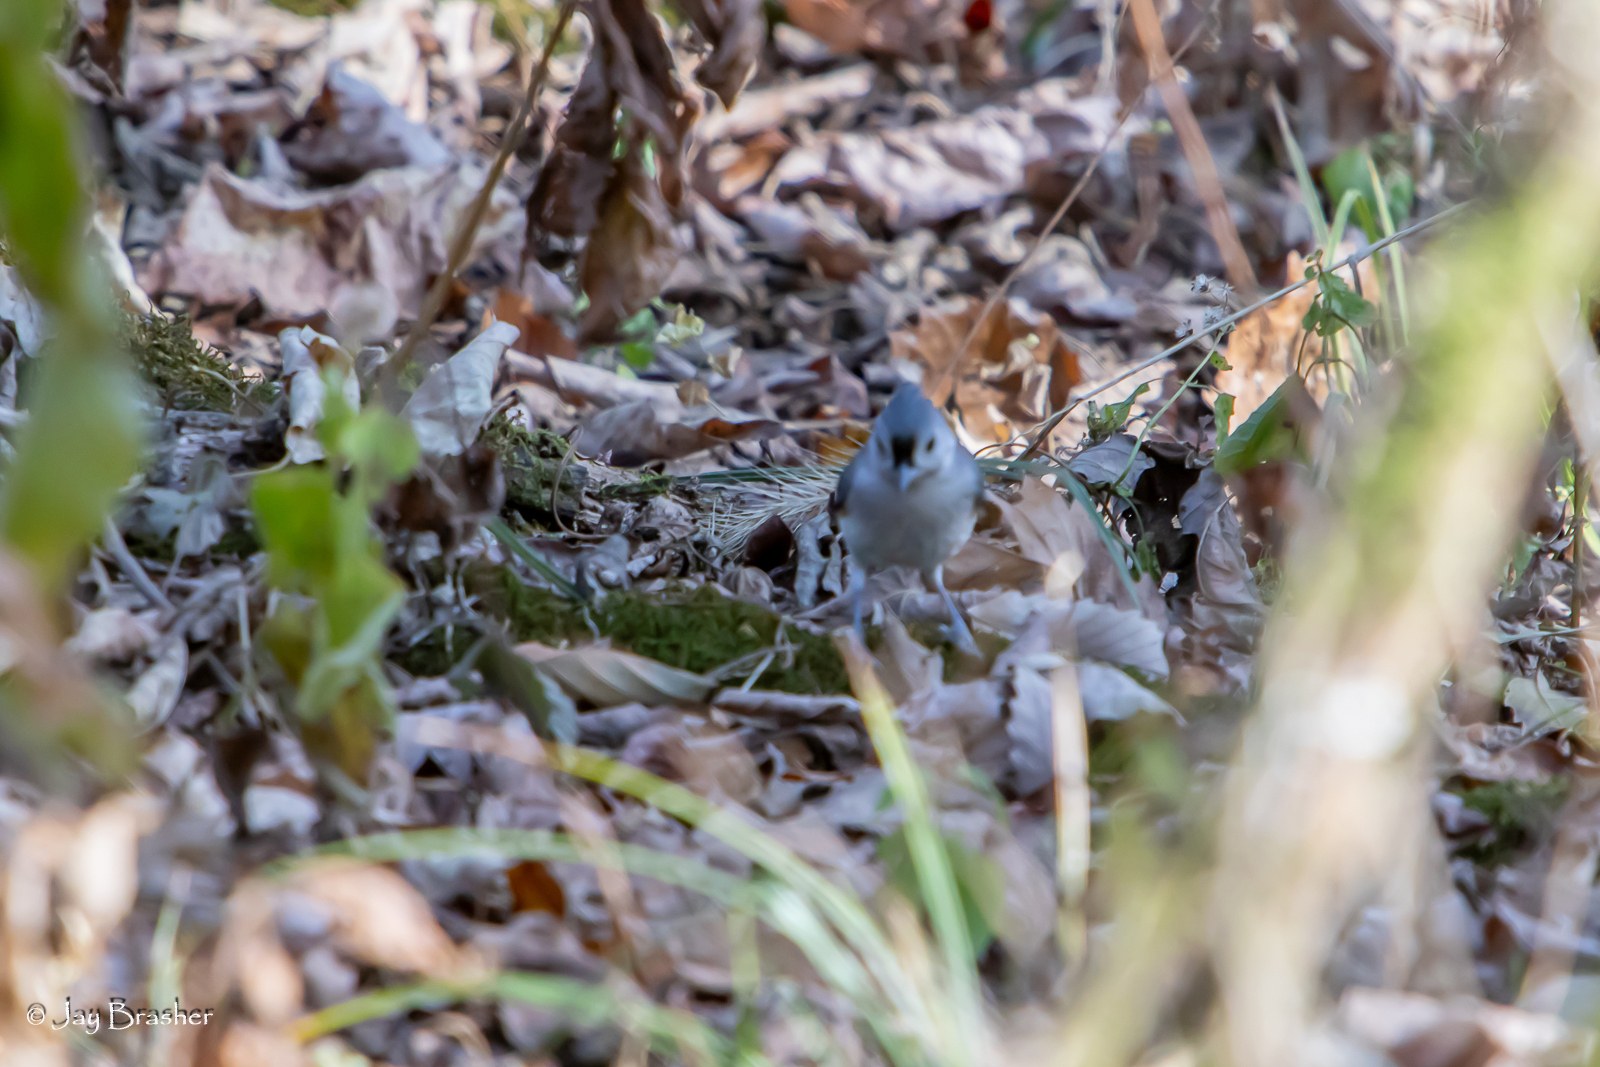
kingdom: Animalia
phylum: Chordata
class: Aves
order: Passeriformes
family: Paridae
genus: Baeolophus
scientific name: Baeolophus bicolor
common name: Tufted titmouse
